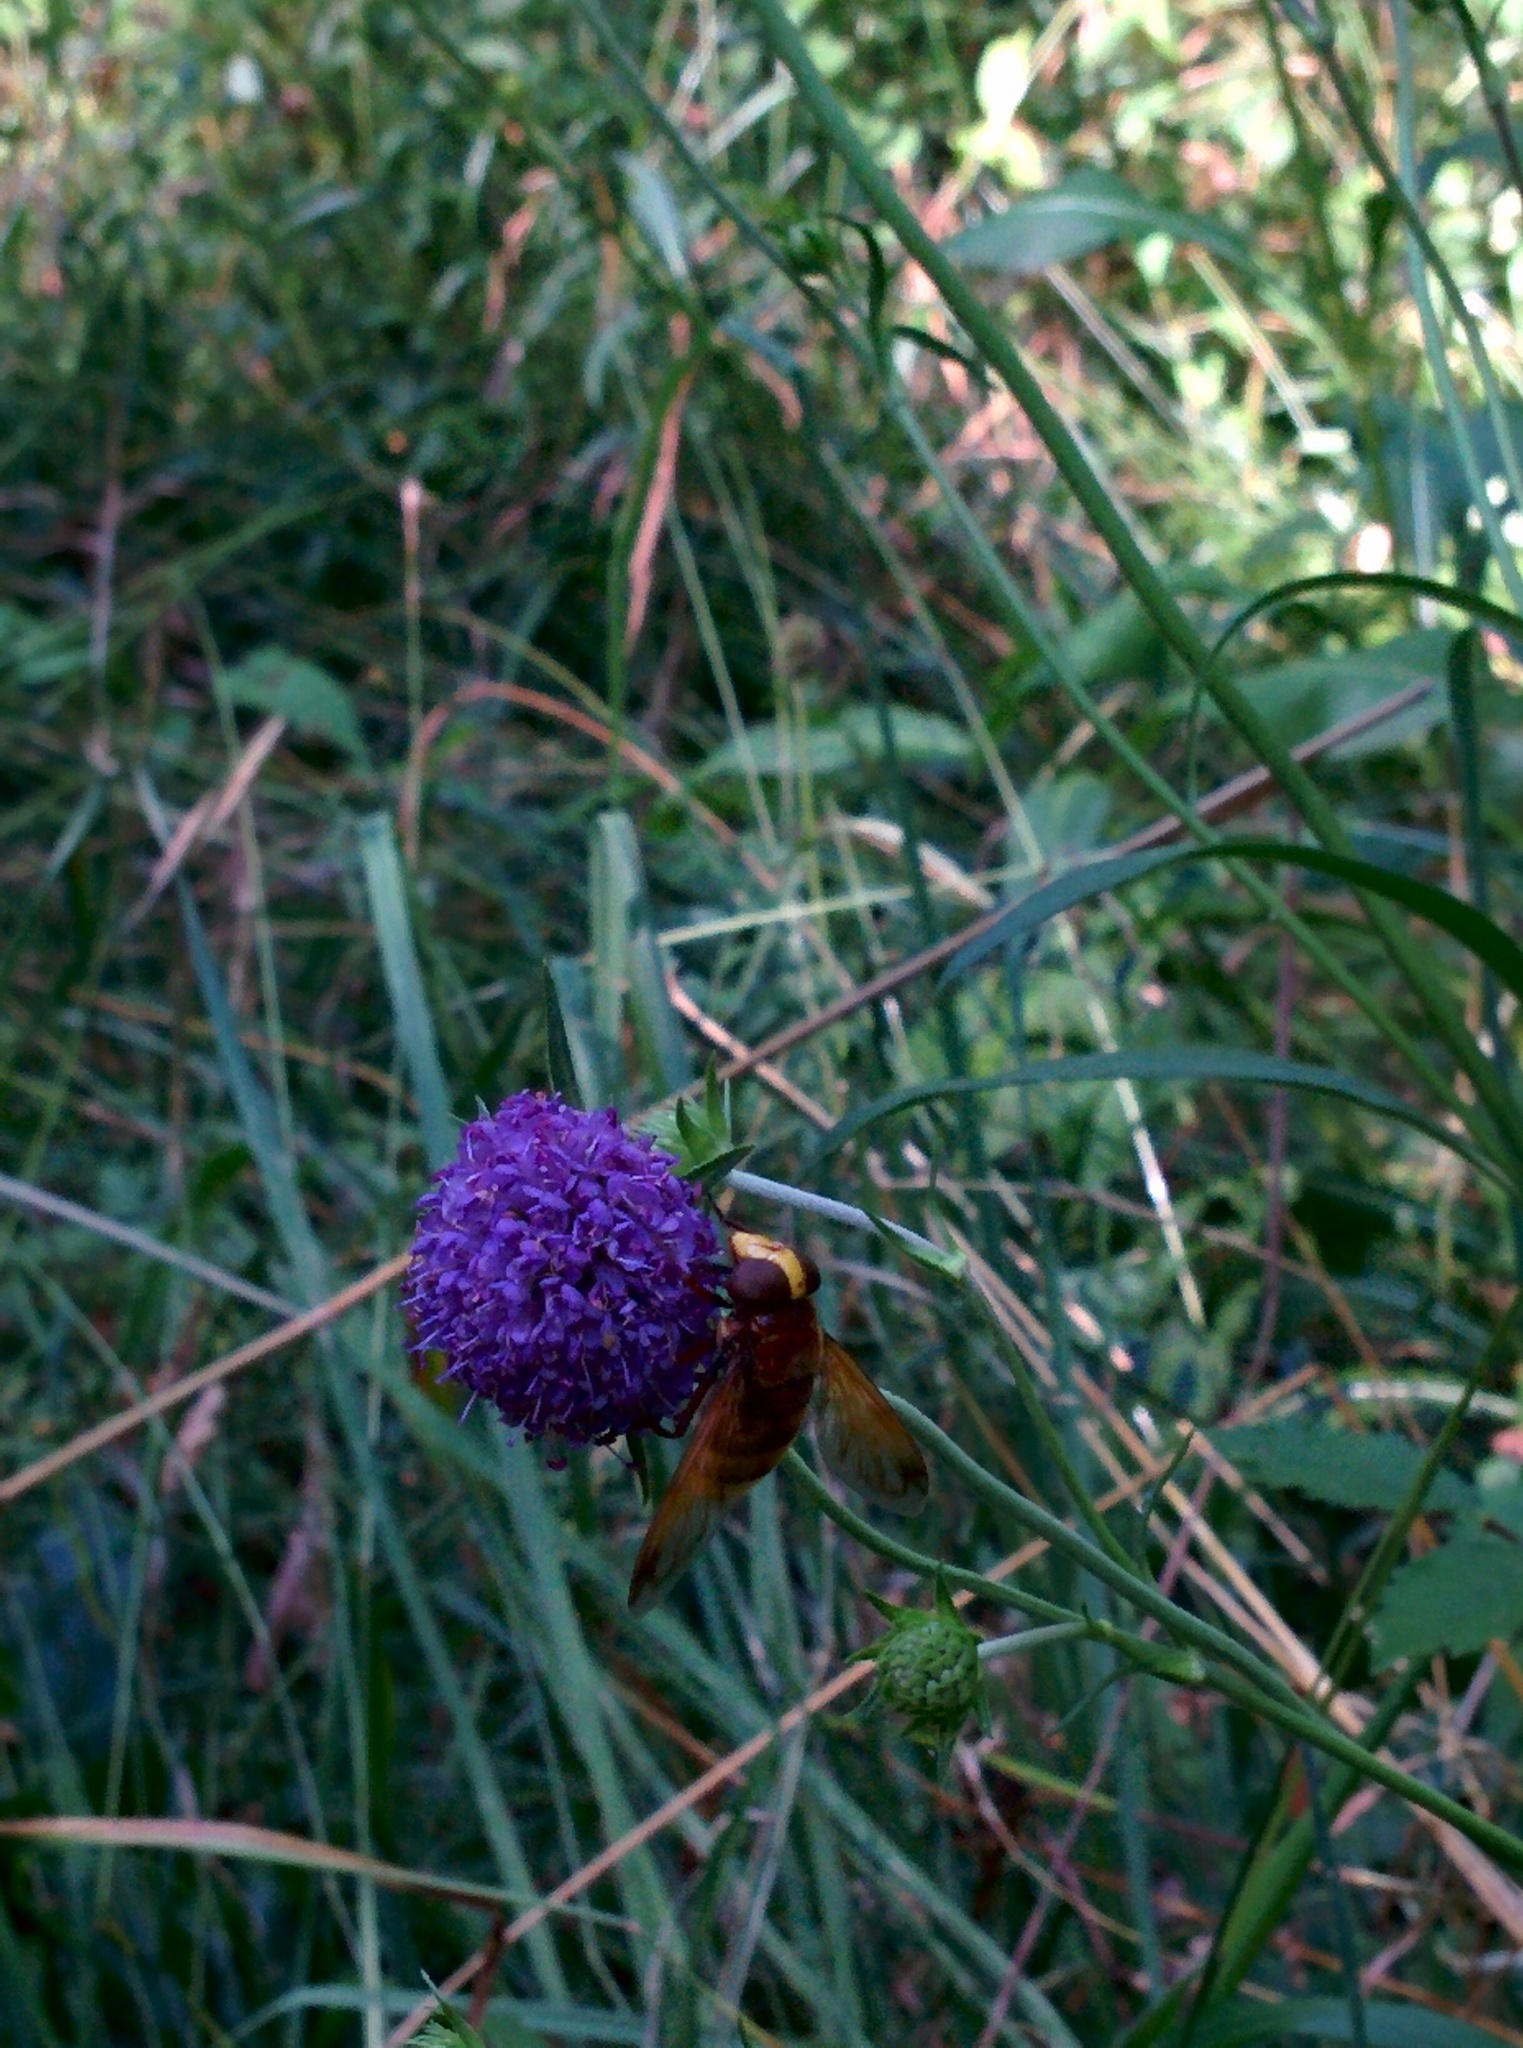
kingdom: Animalia
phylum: Arthropoda
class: Insecta
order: Diptera
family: Syrphidae
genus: Volucella
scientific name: Volucella zonaria
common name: Hornet hoverfly
